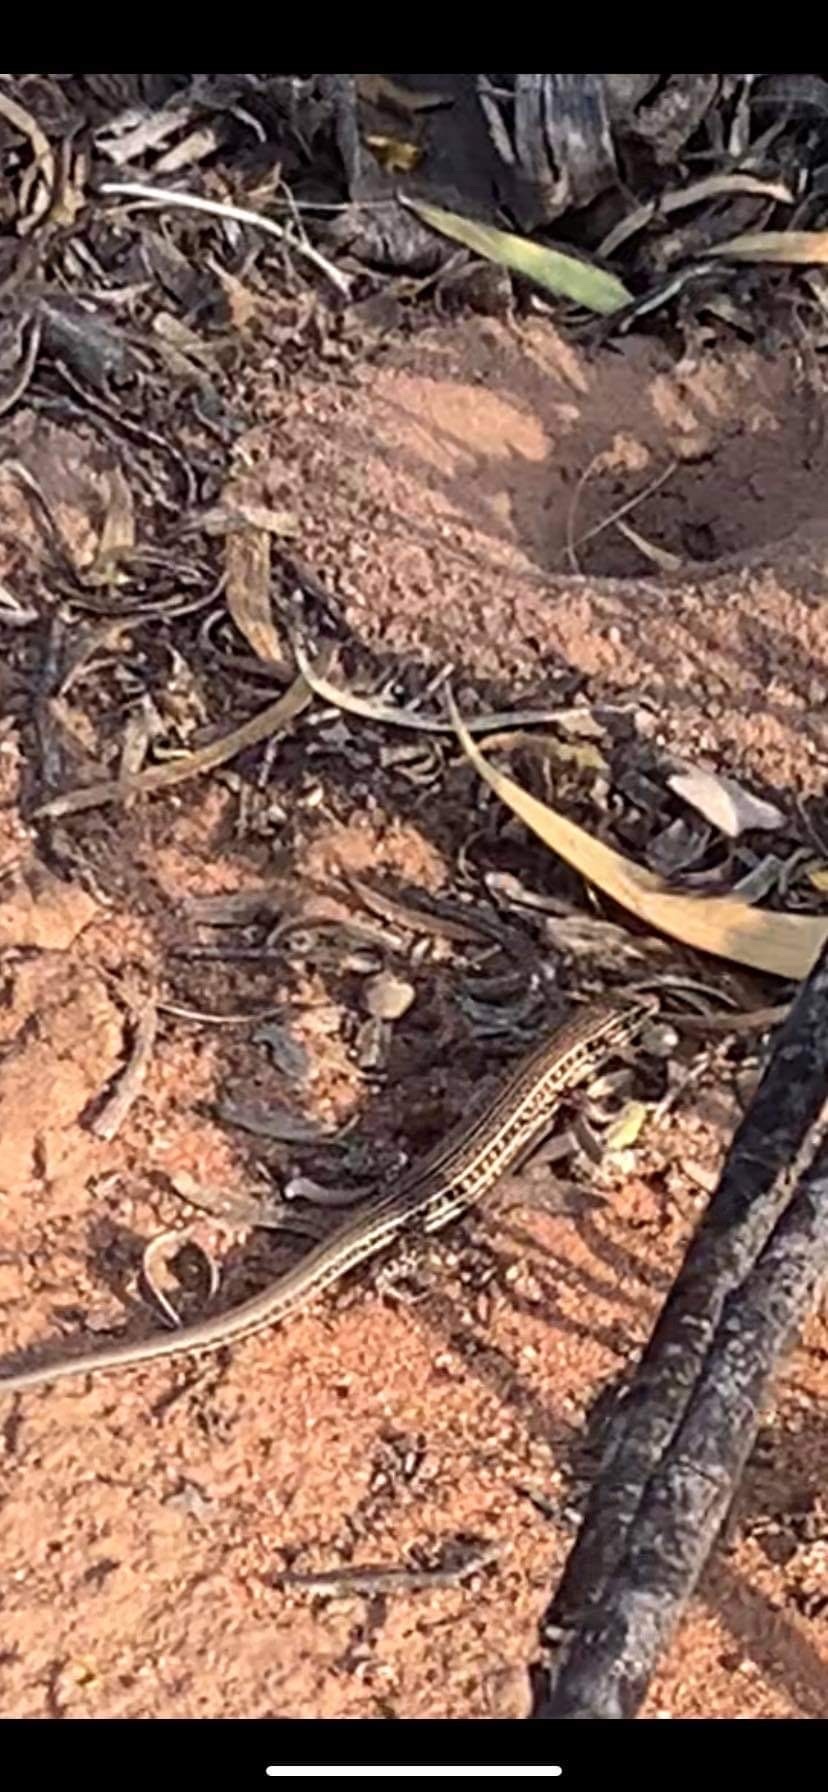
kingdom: Animalia
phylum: Chordata
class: Squamata
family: Scincidae
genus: Ctenotus
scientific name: Ctenotus schomburgkii
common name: Barred wedge-snout ctenotus
